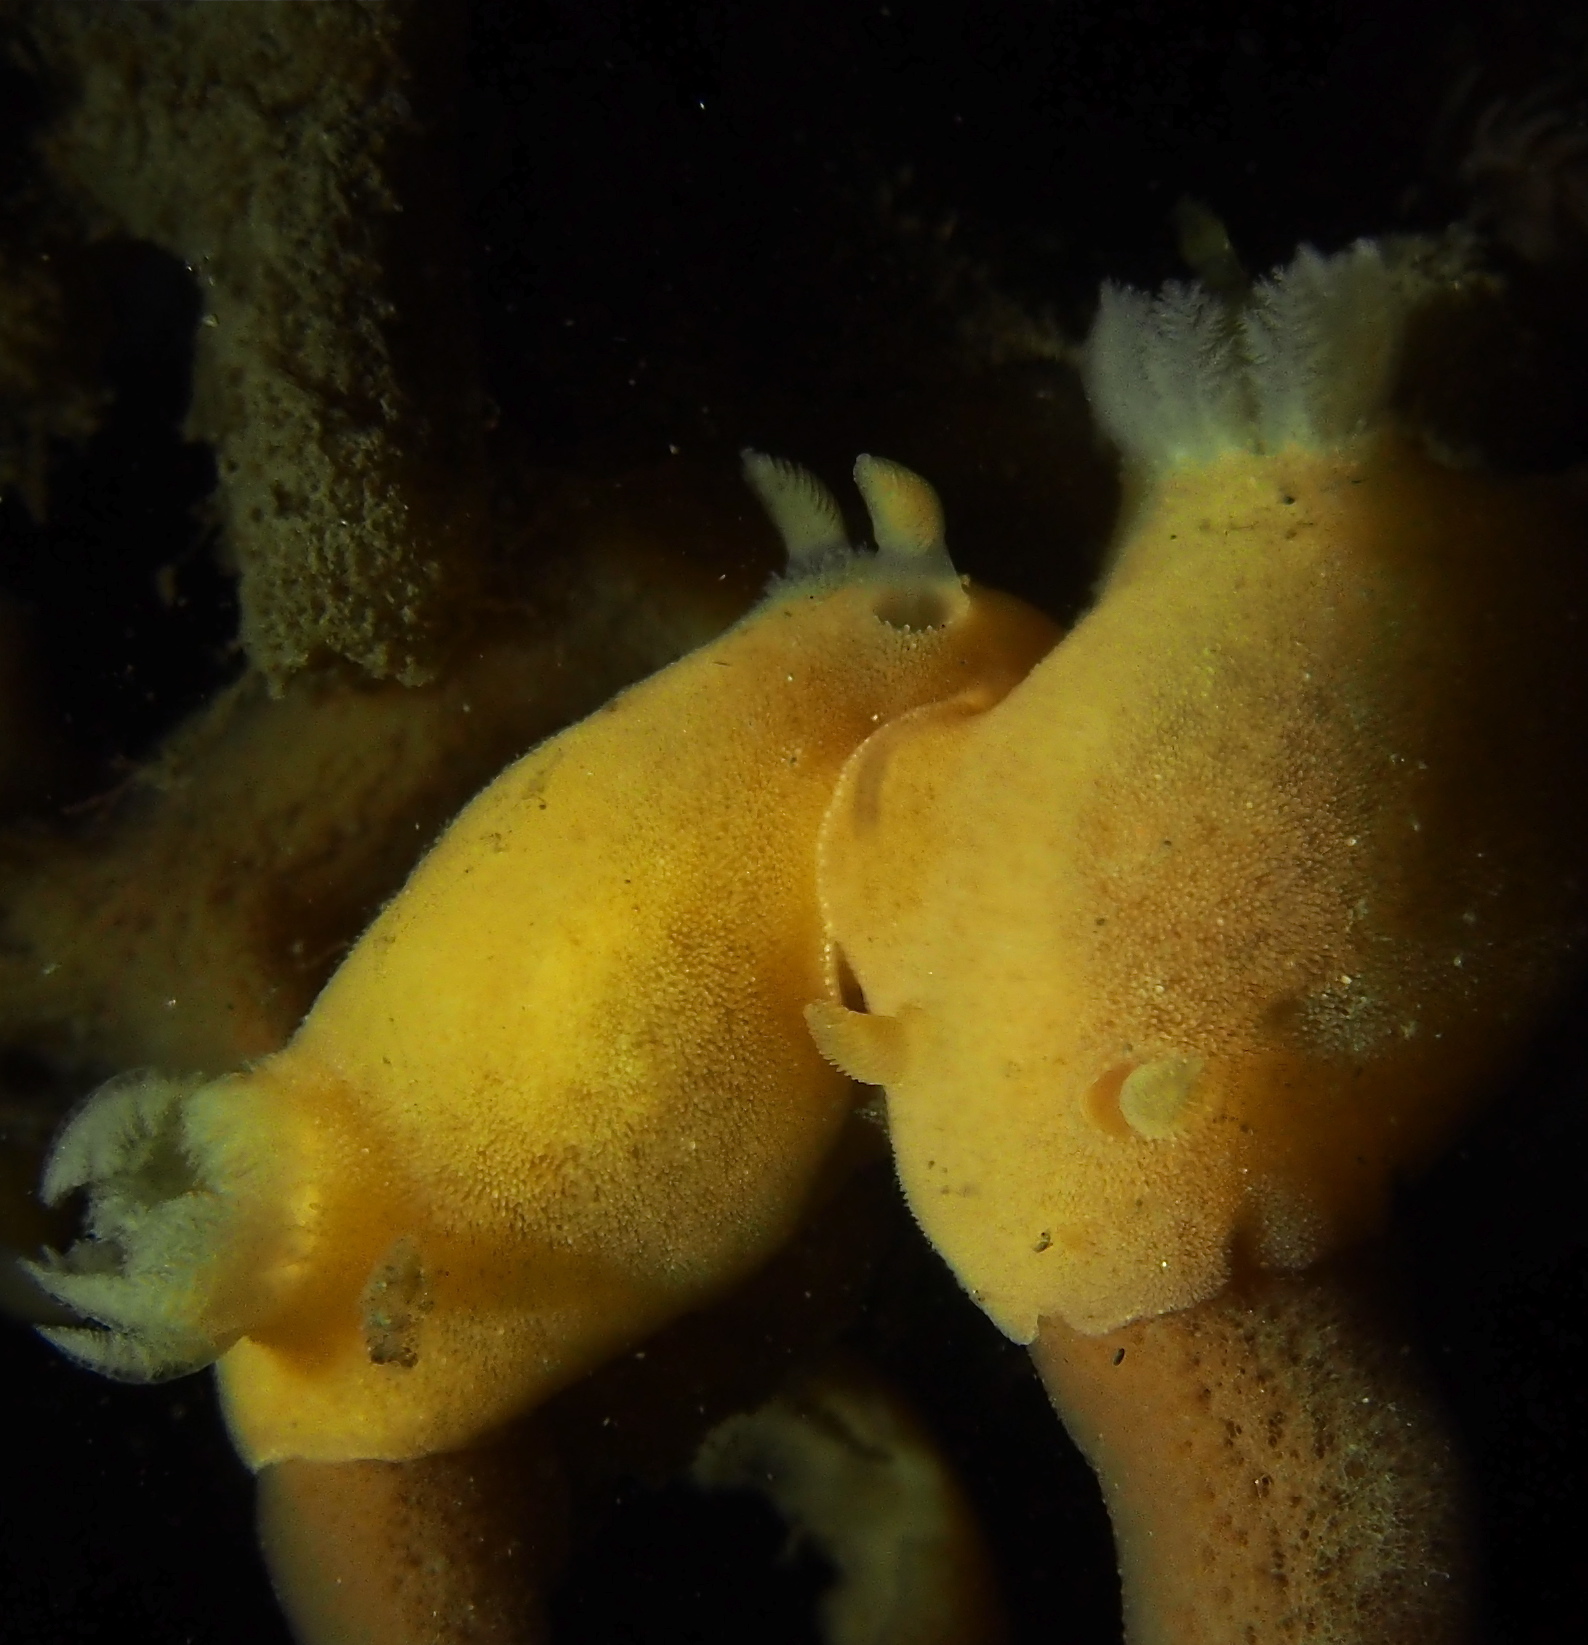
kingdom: Animalia
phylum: Mollusca
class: Gastropoda
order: Nudibranchia
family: Discodorididae
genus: Jorunna
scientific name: Jorunna tomentosa
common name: Grey sea slug
